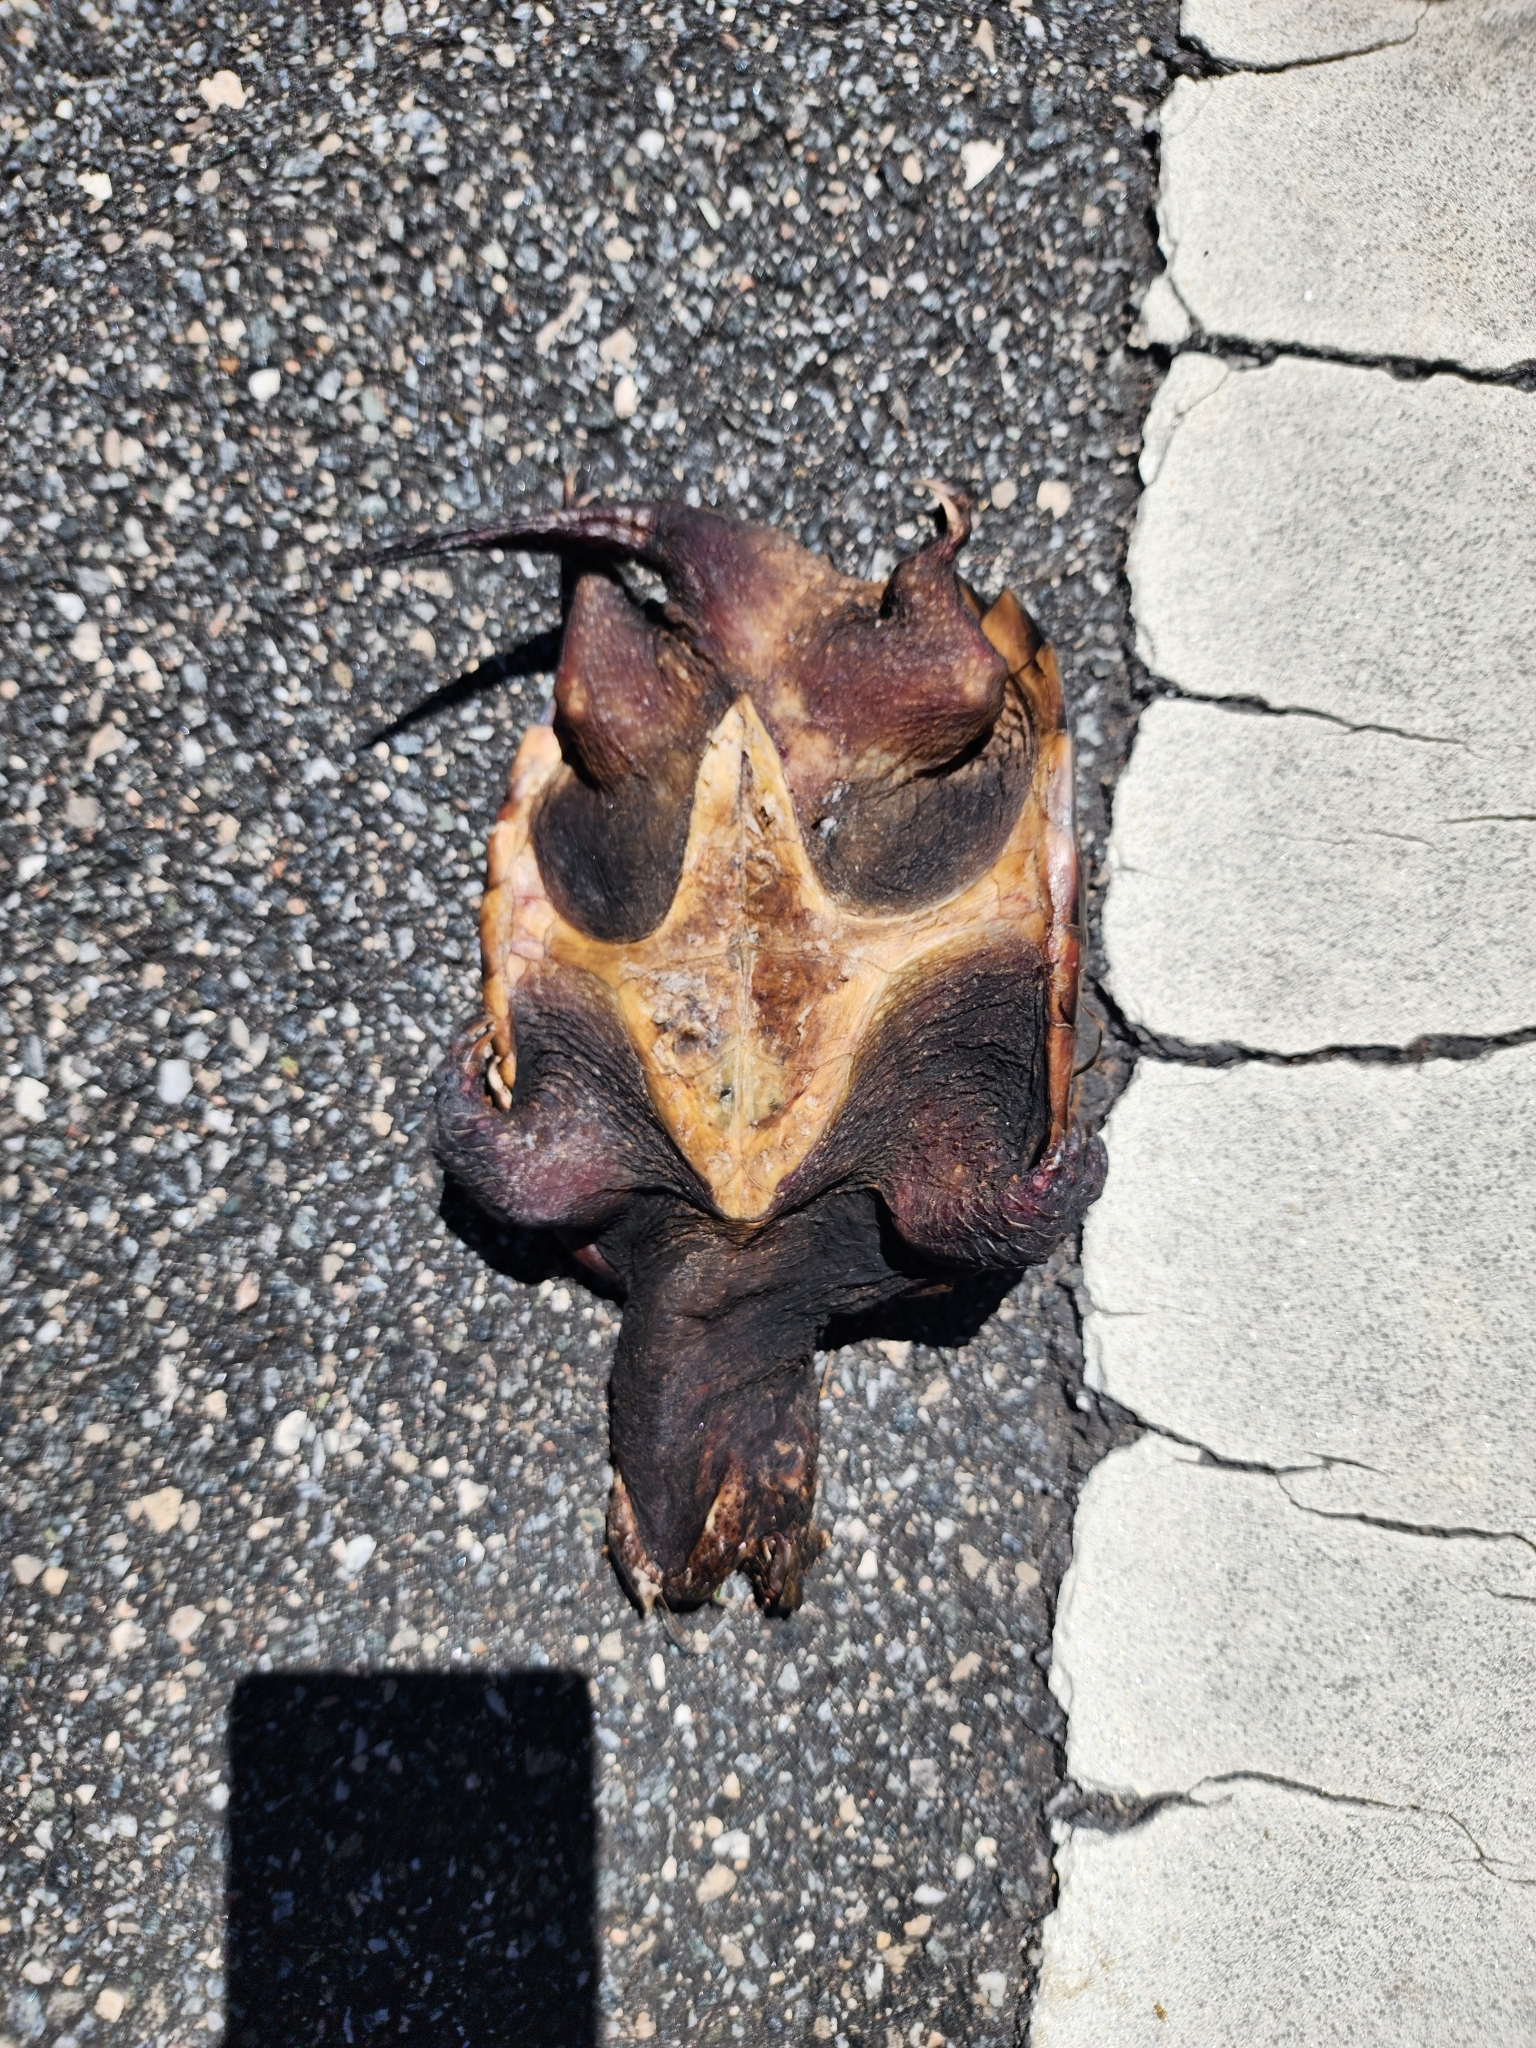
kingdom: Animalia
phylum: Chordata
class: Testudines
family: Chelydridae
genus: Chelydra
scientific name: Chelydra serpentina
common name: Common snapping turtle
